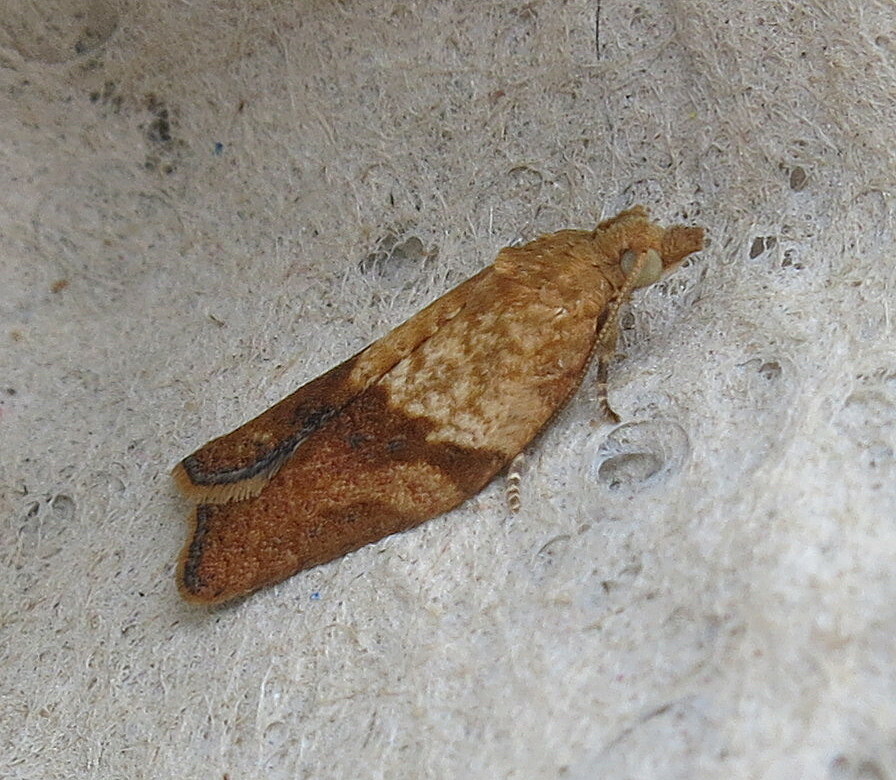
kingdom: Animalia
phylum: Arthropoda
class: Insecta
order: Lepidoptera
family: Tortricidae
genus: Epiphyas
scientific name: Epiphyas postvittana
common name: Light brown apple moth
